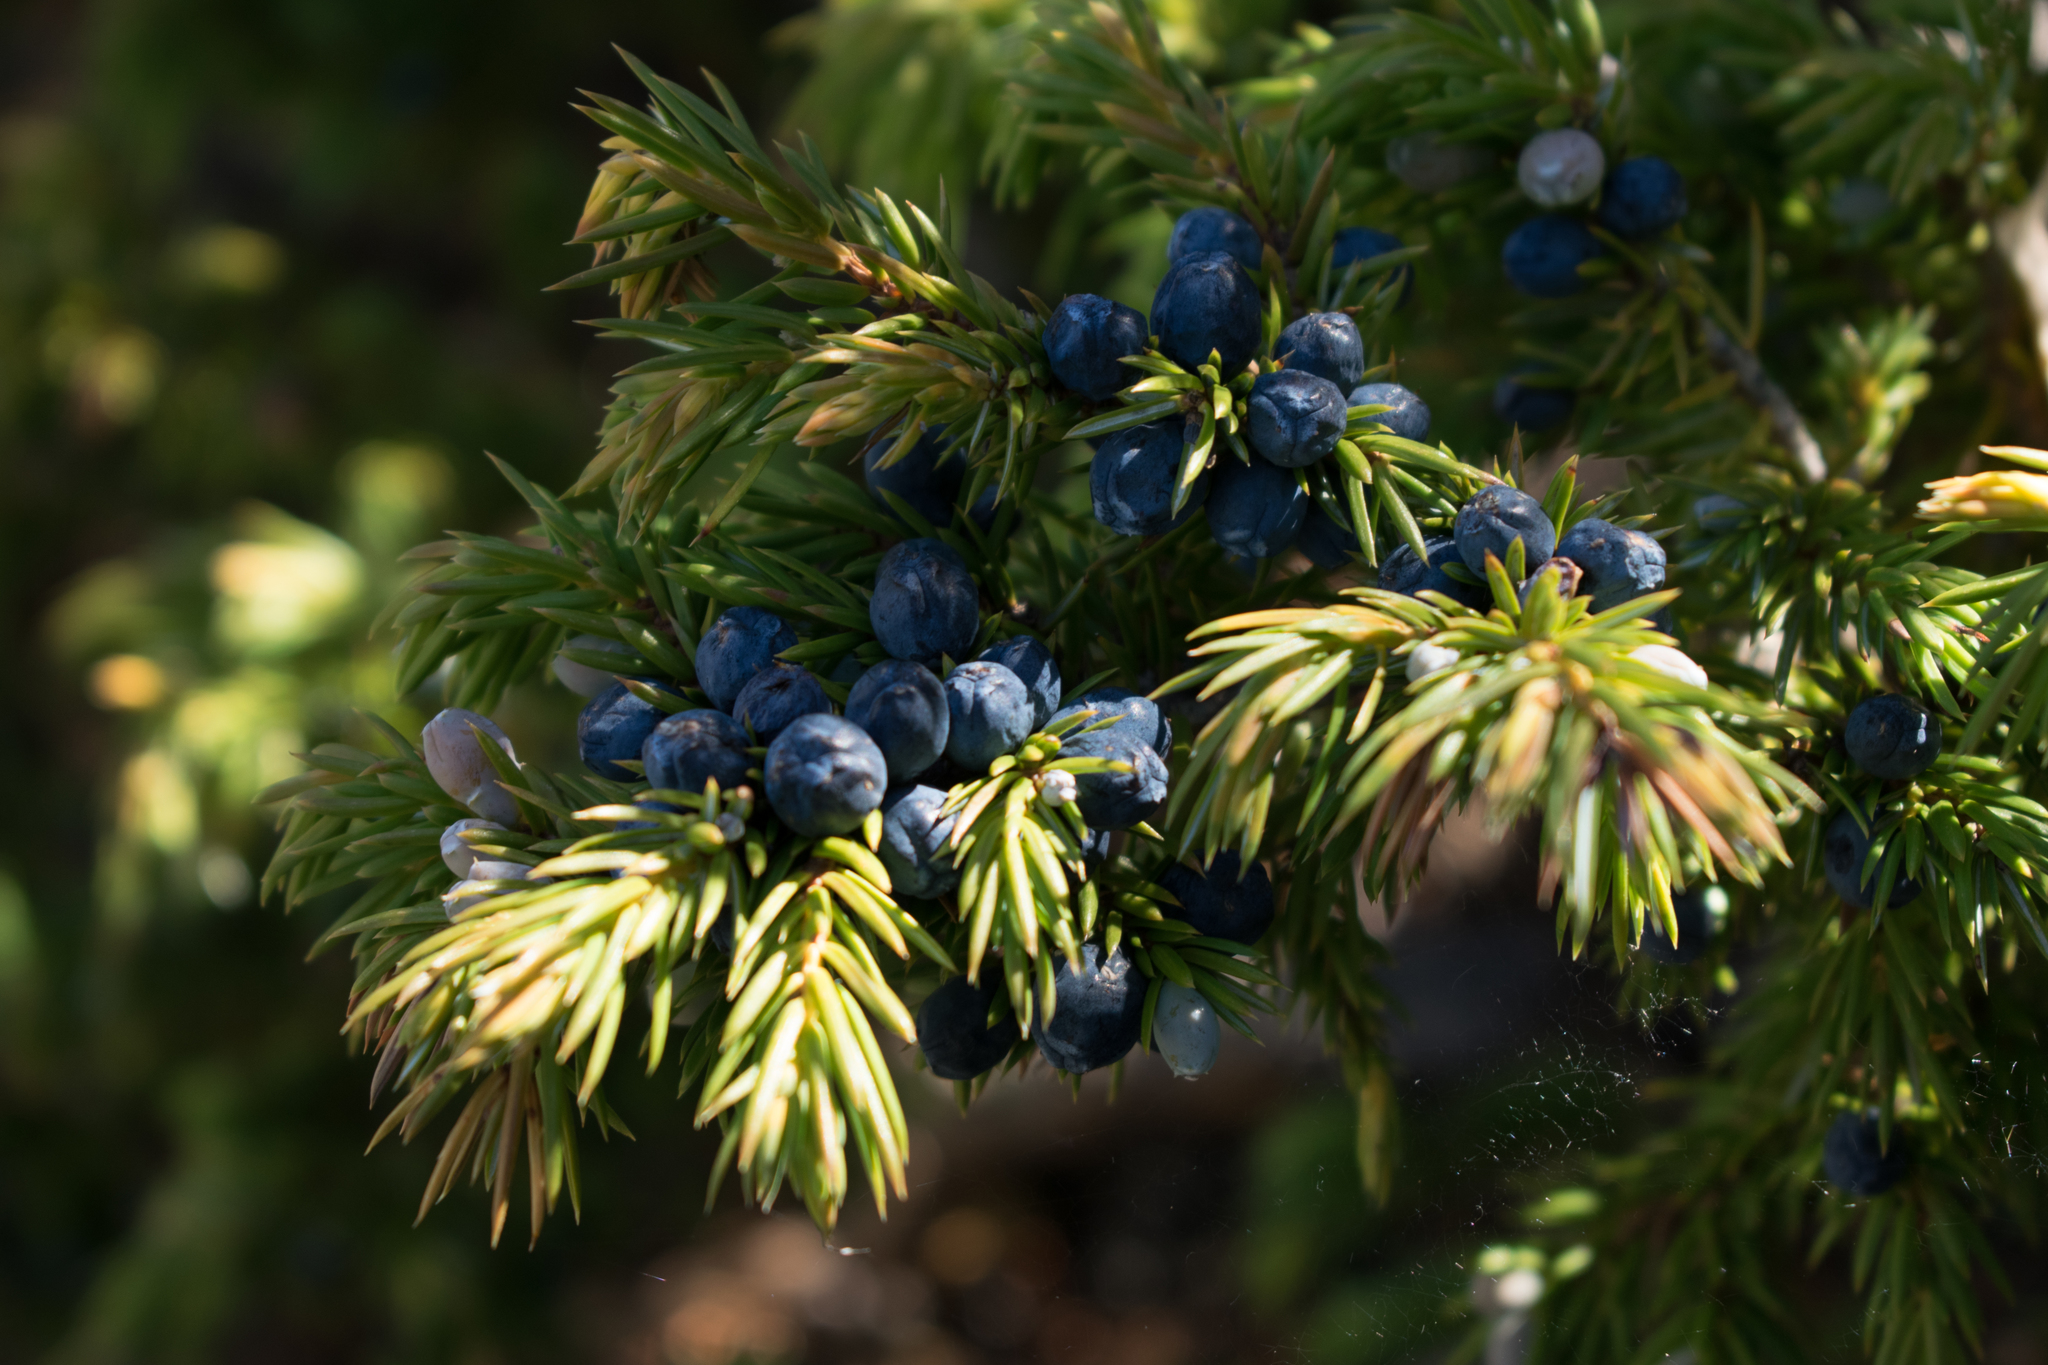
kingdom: Plantae
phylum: Tracheophyta
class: Pinopsida
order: Pinales
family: Cupressaceae
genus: Juniperus
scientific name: Juniperus communis
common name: Common juniper
